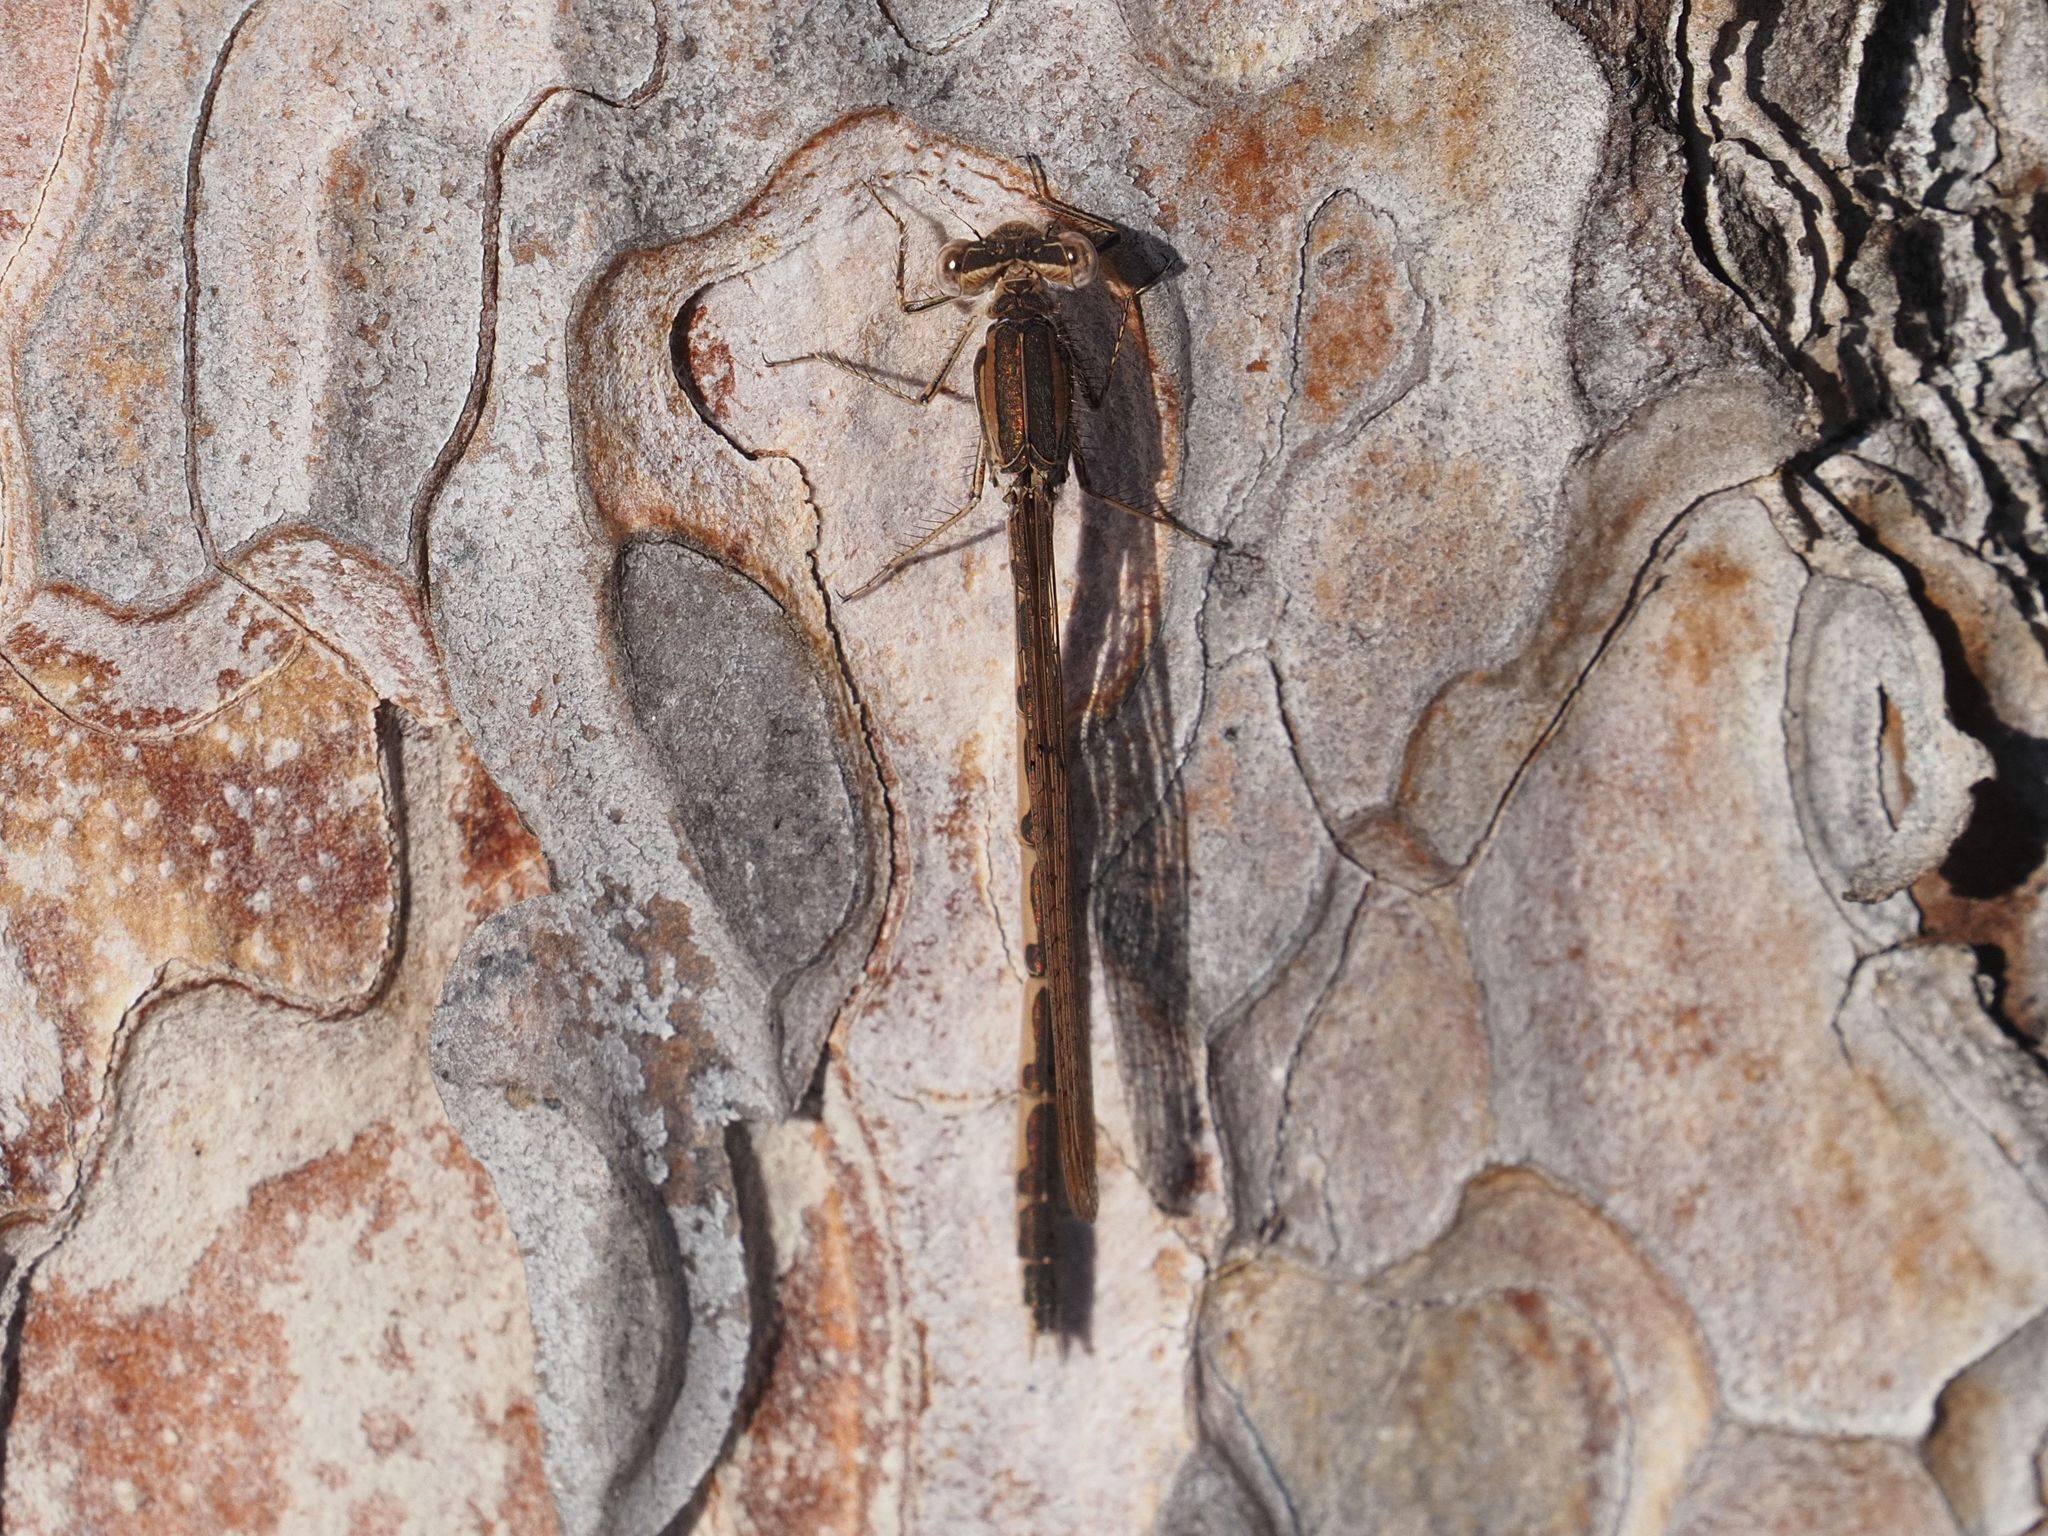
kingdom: Animalia
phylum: Arthropoda
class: Insecta
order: Odonata
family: Lestidae
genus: Sympecma
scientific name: Sympecma fusca
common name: Common winter damsel
